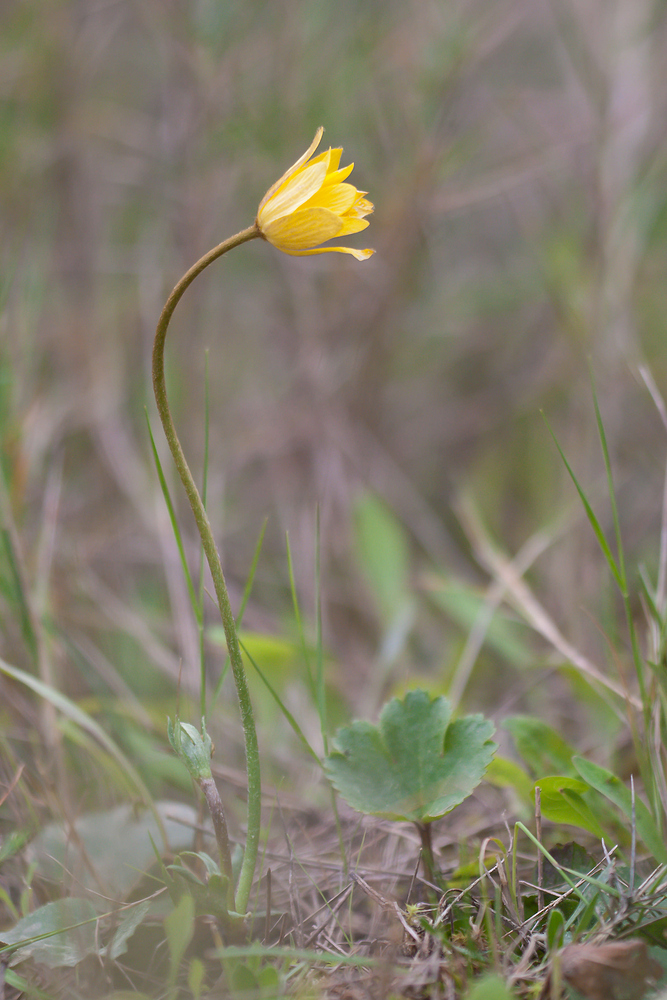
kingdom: Plantae
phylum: Tracheophyta
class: Magnoliopsida
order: Ranunculales
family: Ranunculaceae
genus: Anemone
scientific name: Anemone palmata
